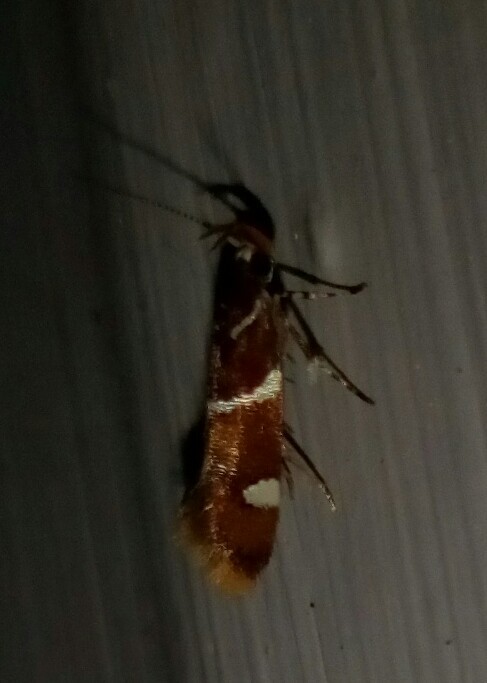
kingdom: Animalia
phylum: Arthropoda
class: Insecta
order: Lepidoptera
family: Oecophoridae
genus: Promalactis
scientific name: Promalactis suzukiella
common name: Moth
